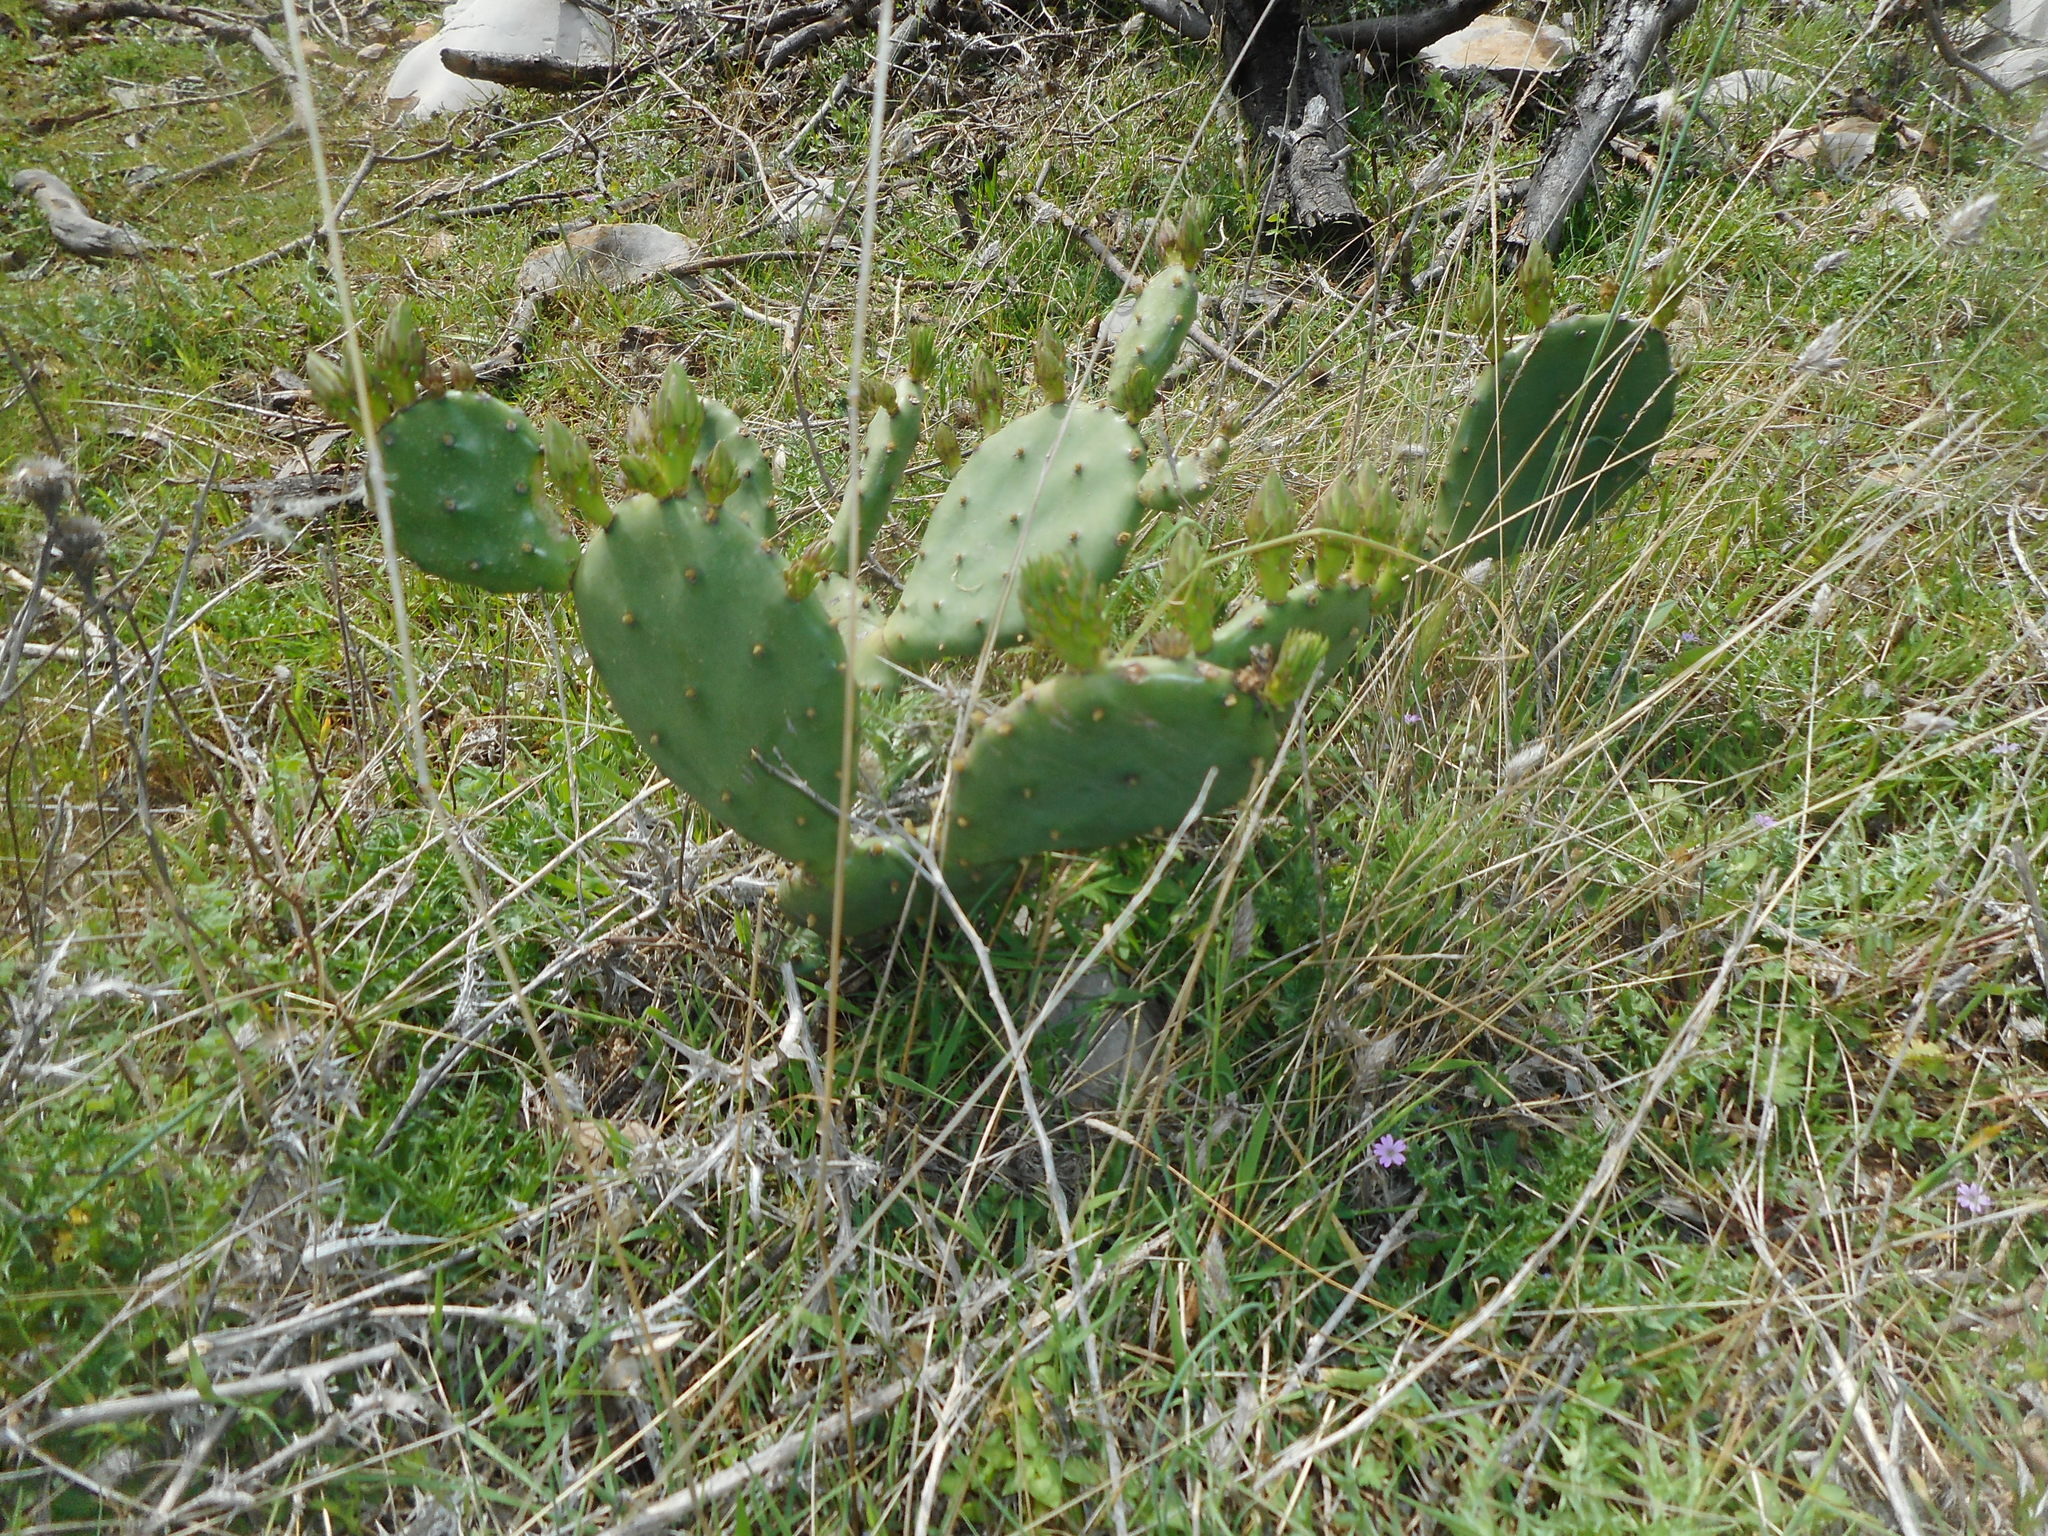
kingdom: Plantae
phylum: Tracheophyta
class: Magnoliopsida
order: Caryophyllales
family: Cactaceae
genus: Opuntia
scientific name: Opuntia stricta
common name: Erect pricklypear
